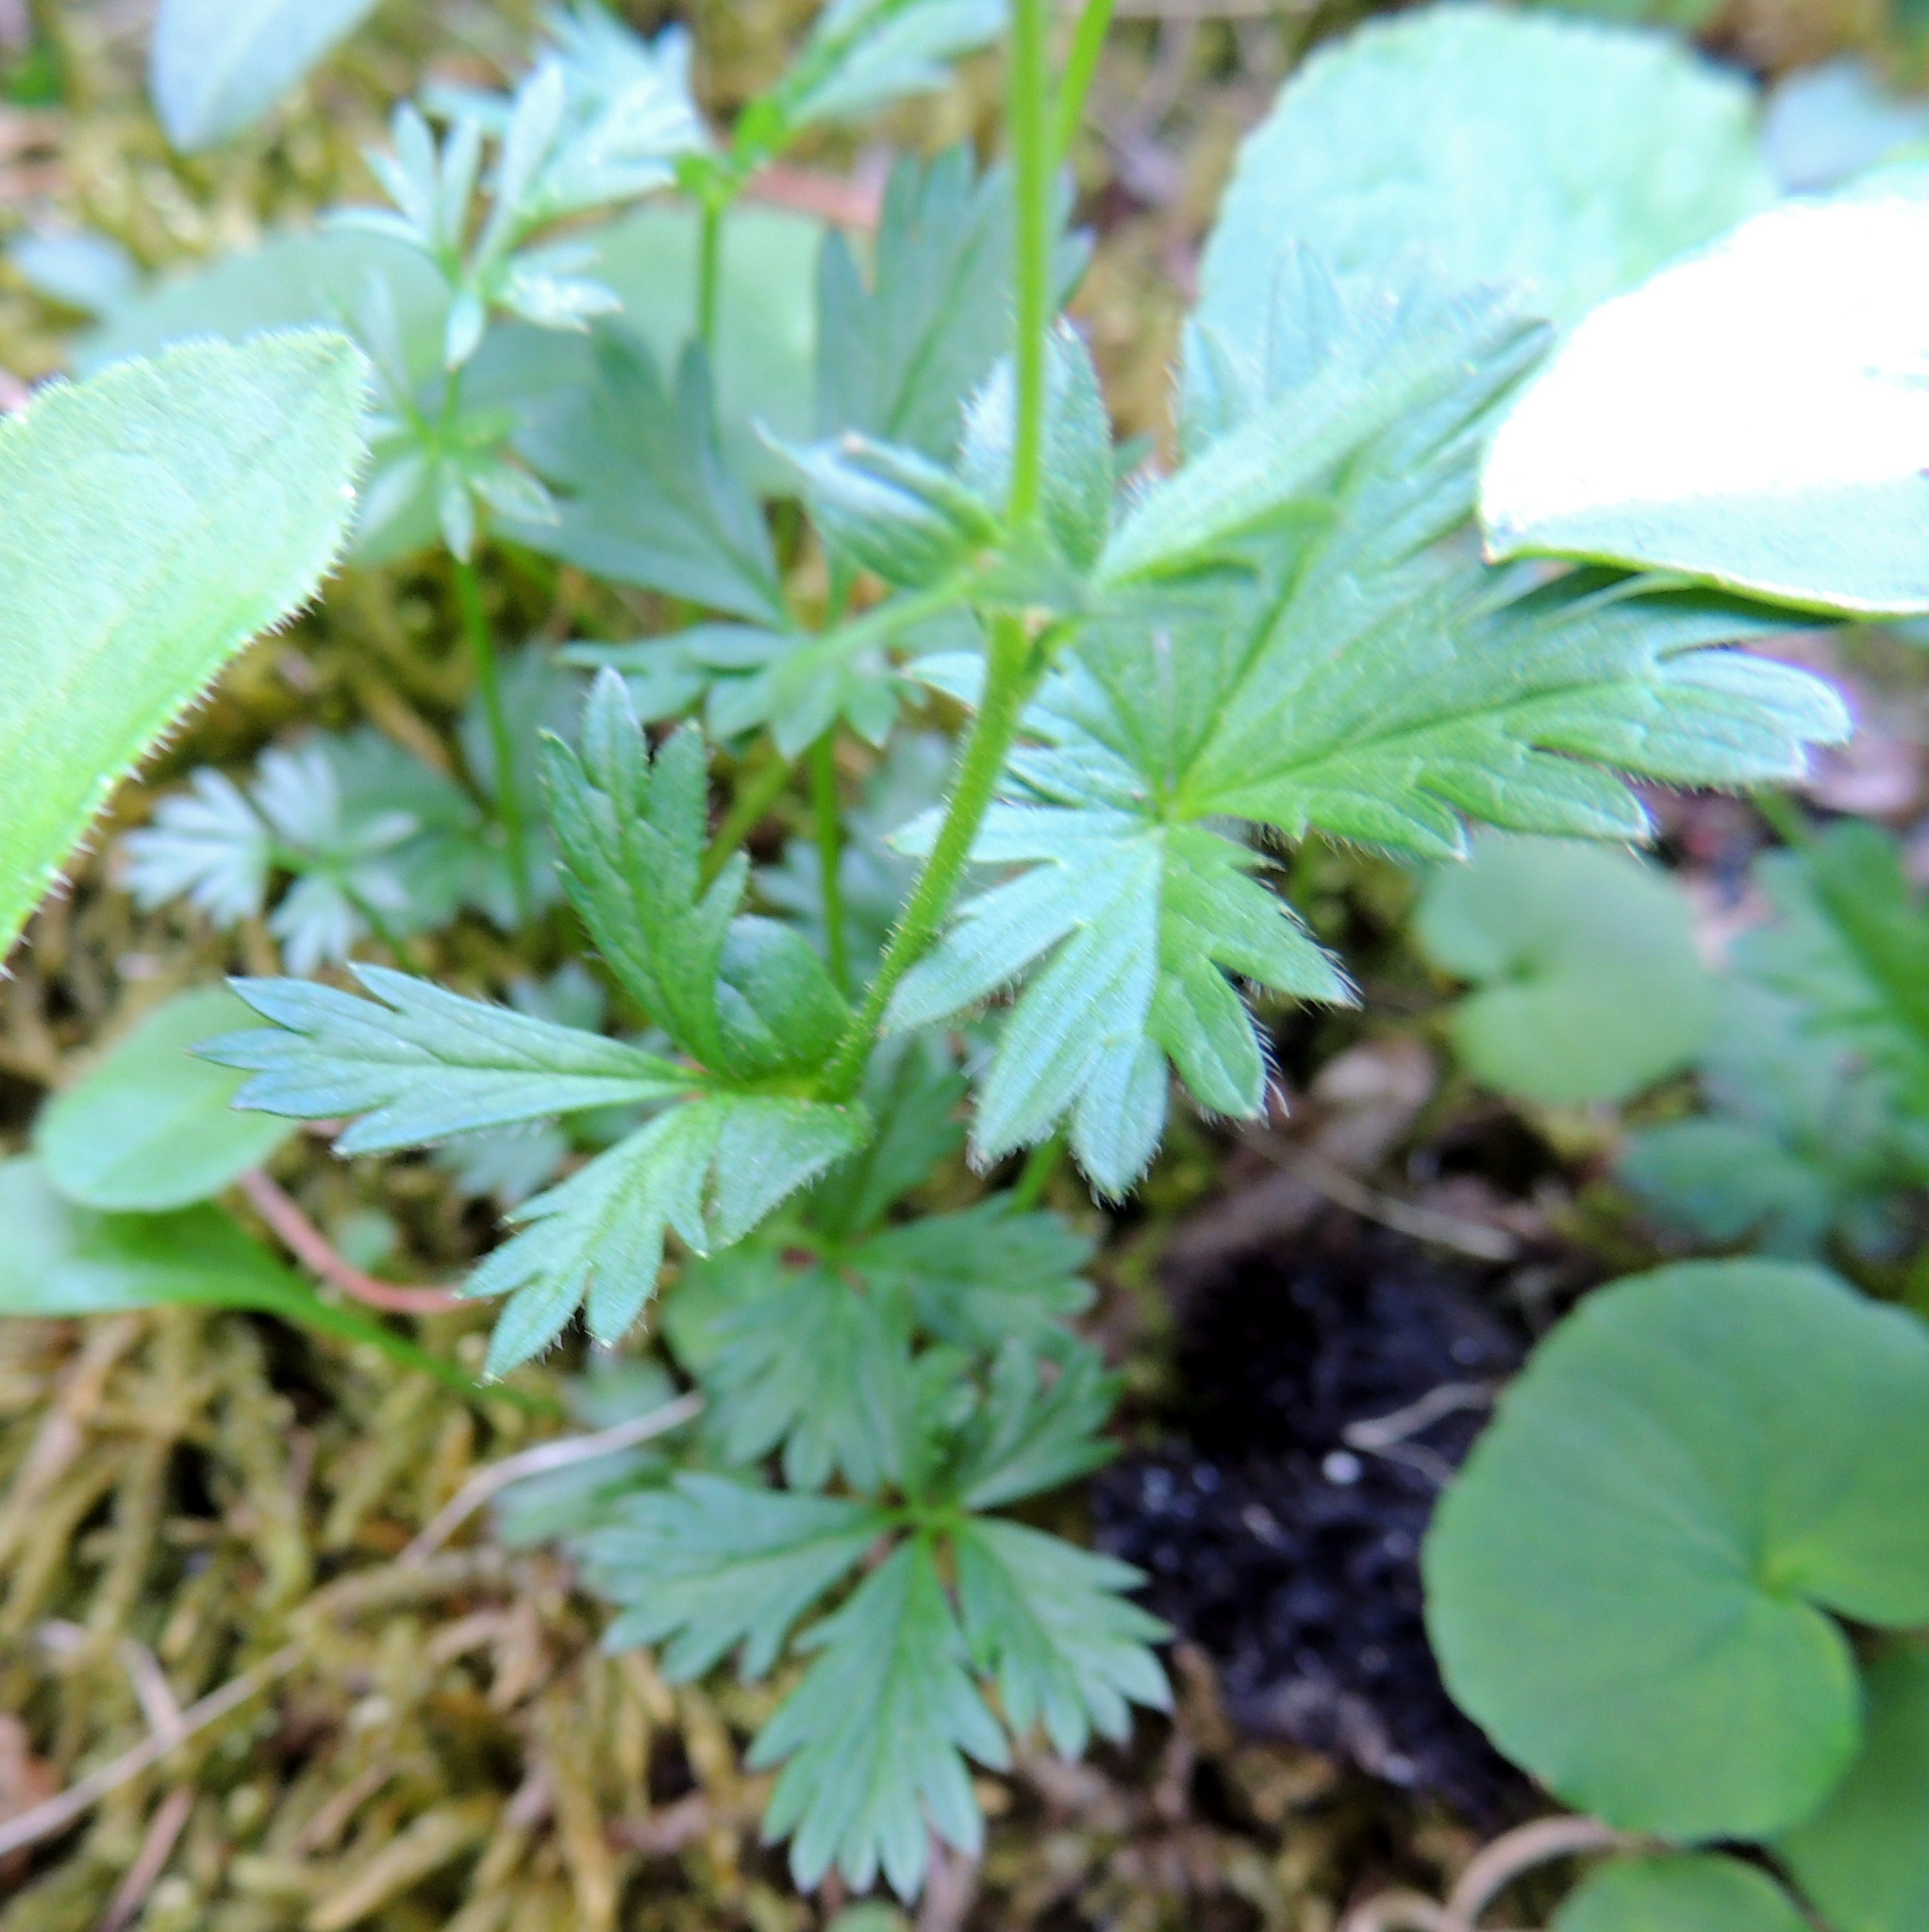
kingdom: Plantae
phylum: Tracheophyta
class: Magnoliopsida
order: Rosales
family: Rosaceae
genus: Potentilla
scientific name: Potentilla crantzii
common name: Alpine cinquefoil
